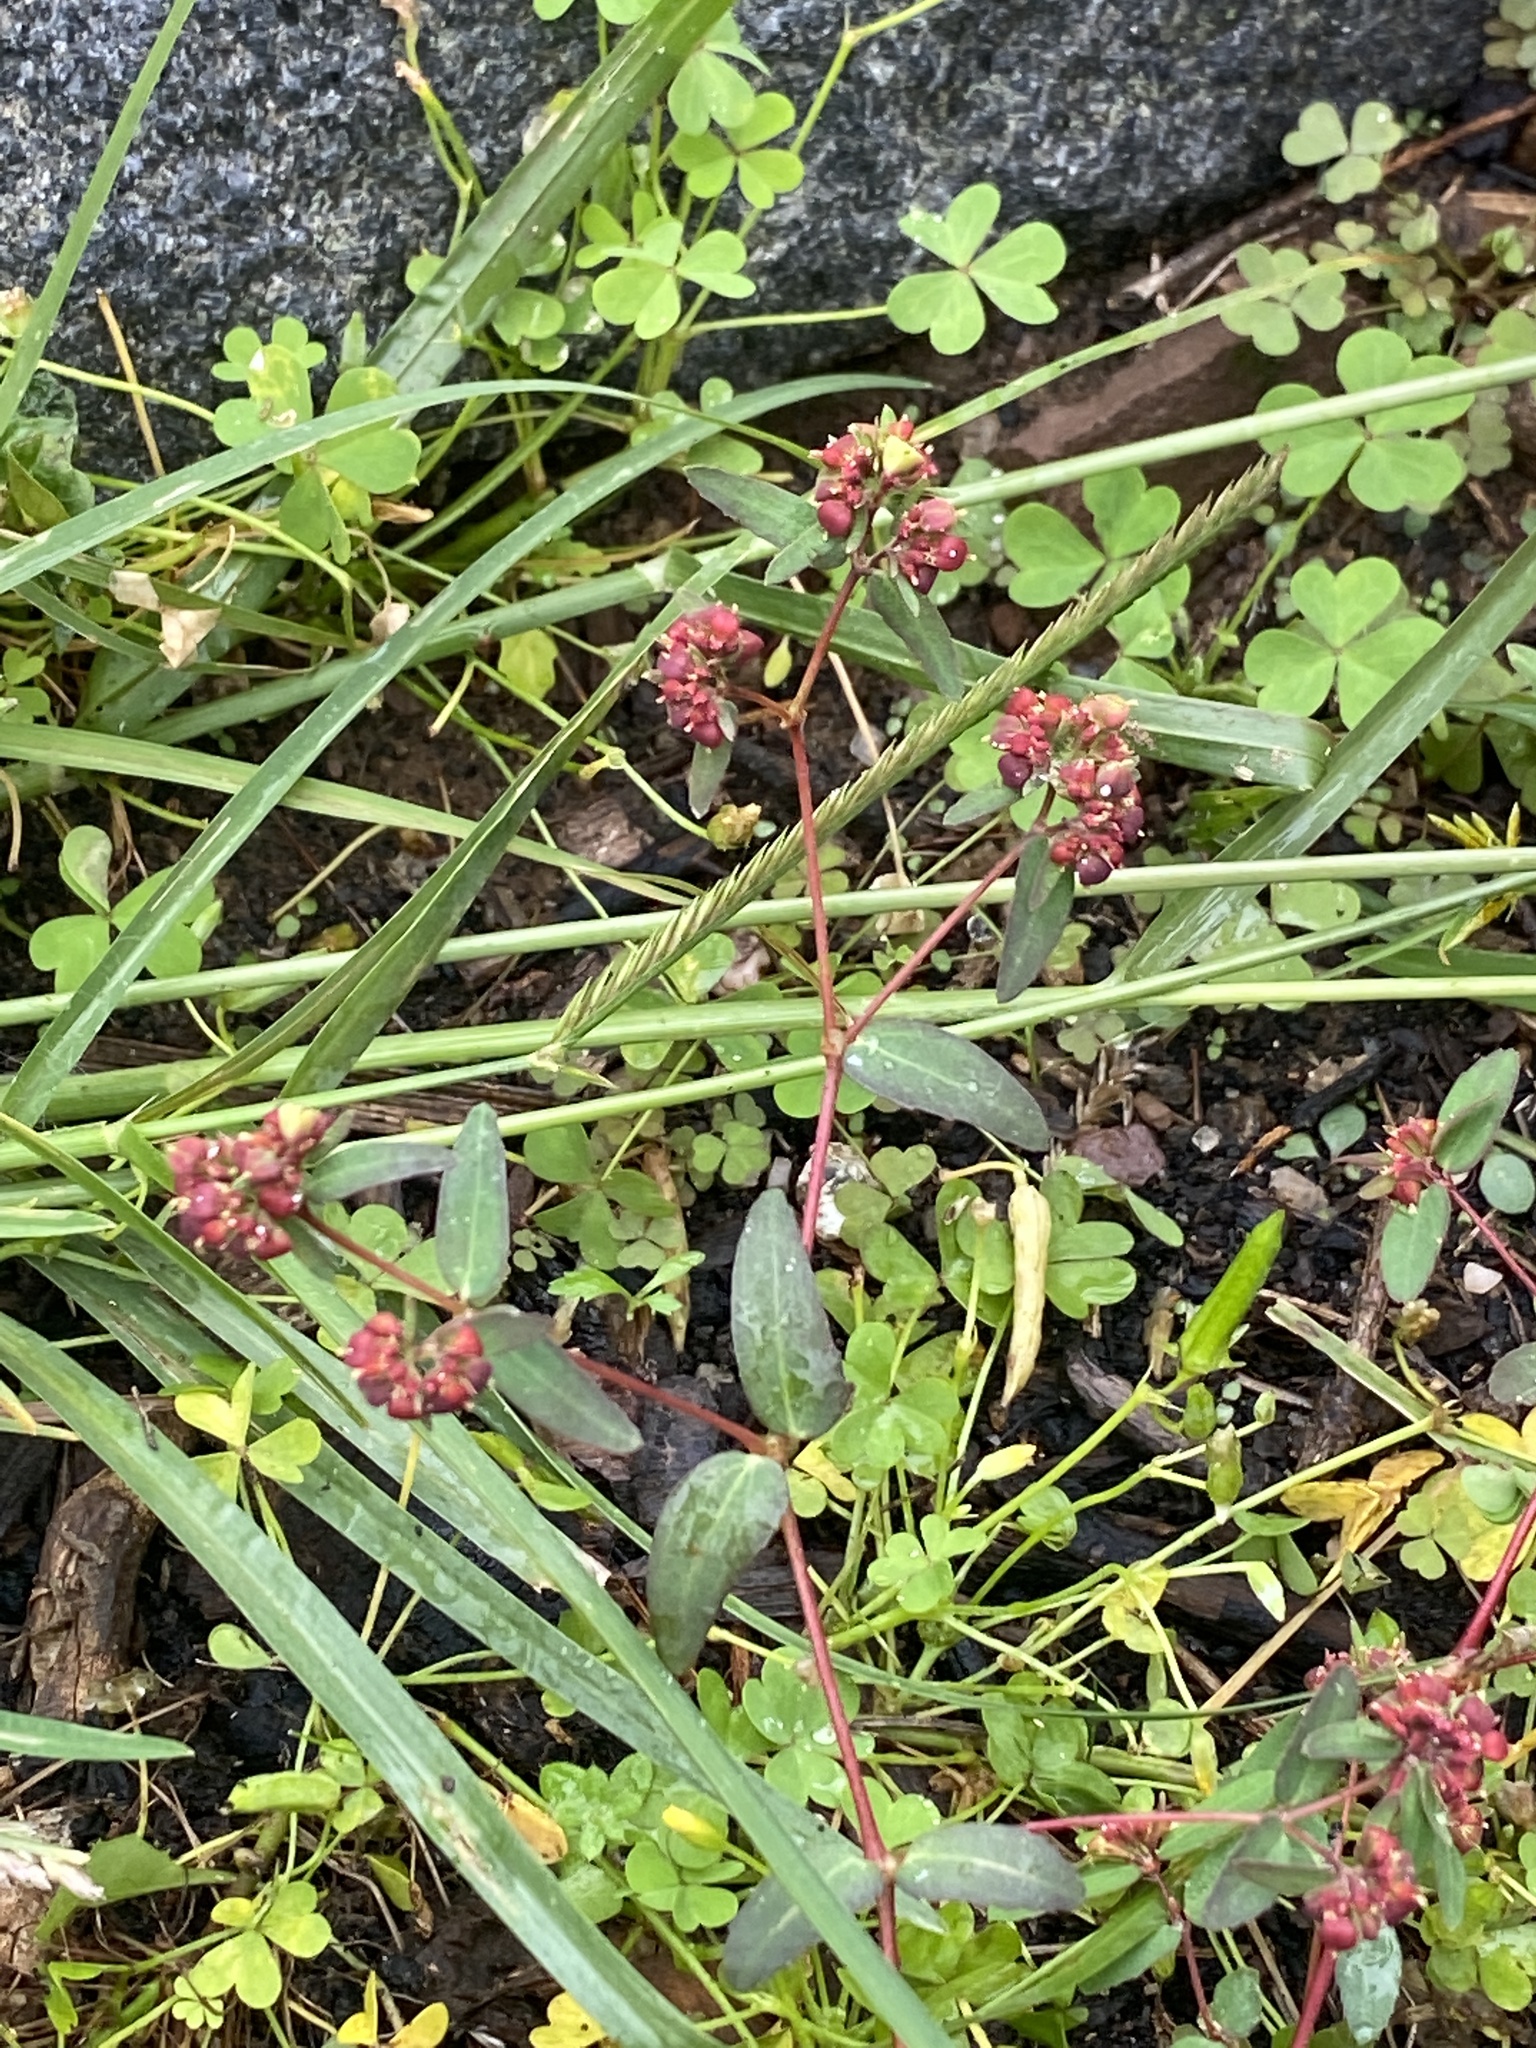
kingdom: Plantae
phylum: Tracheophyta
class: Magnoliopsida
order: Malpighiales
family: Euphorbiaceae
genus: Euphorbia
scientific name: Euphorbia nutans
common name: Eyebane
